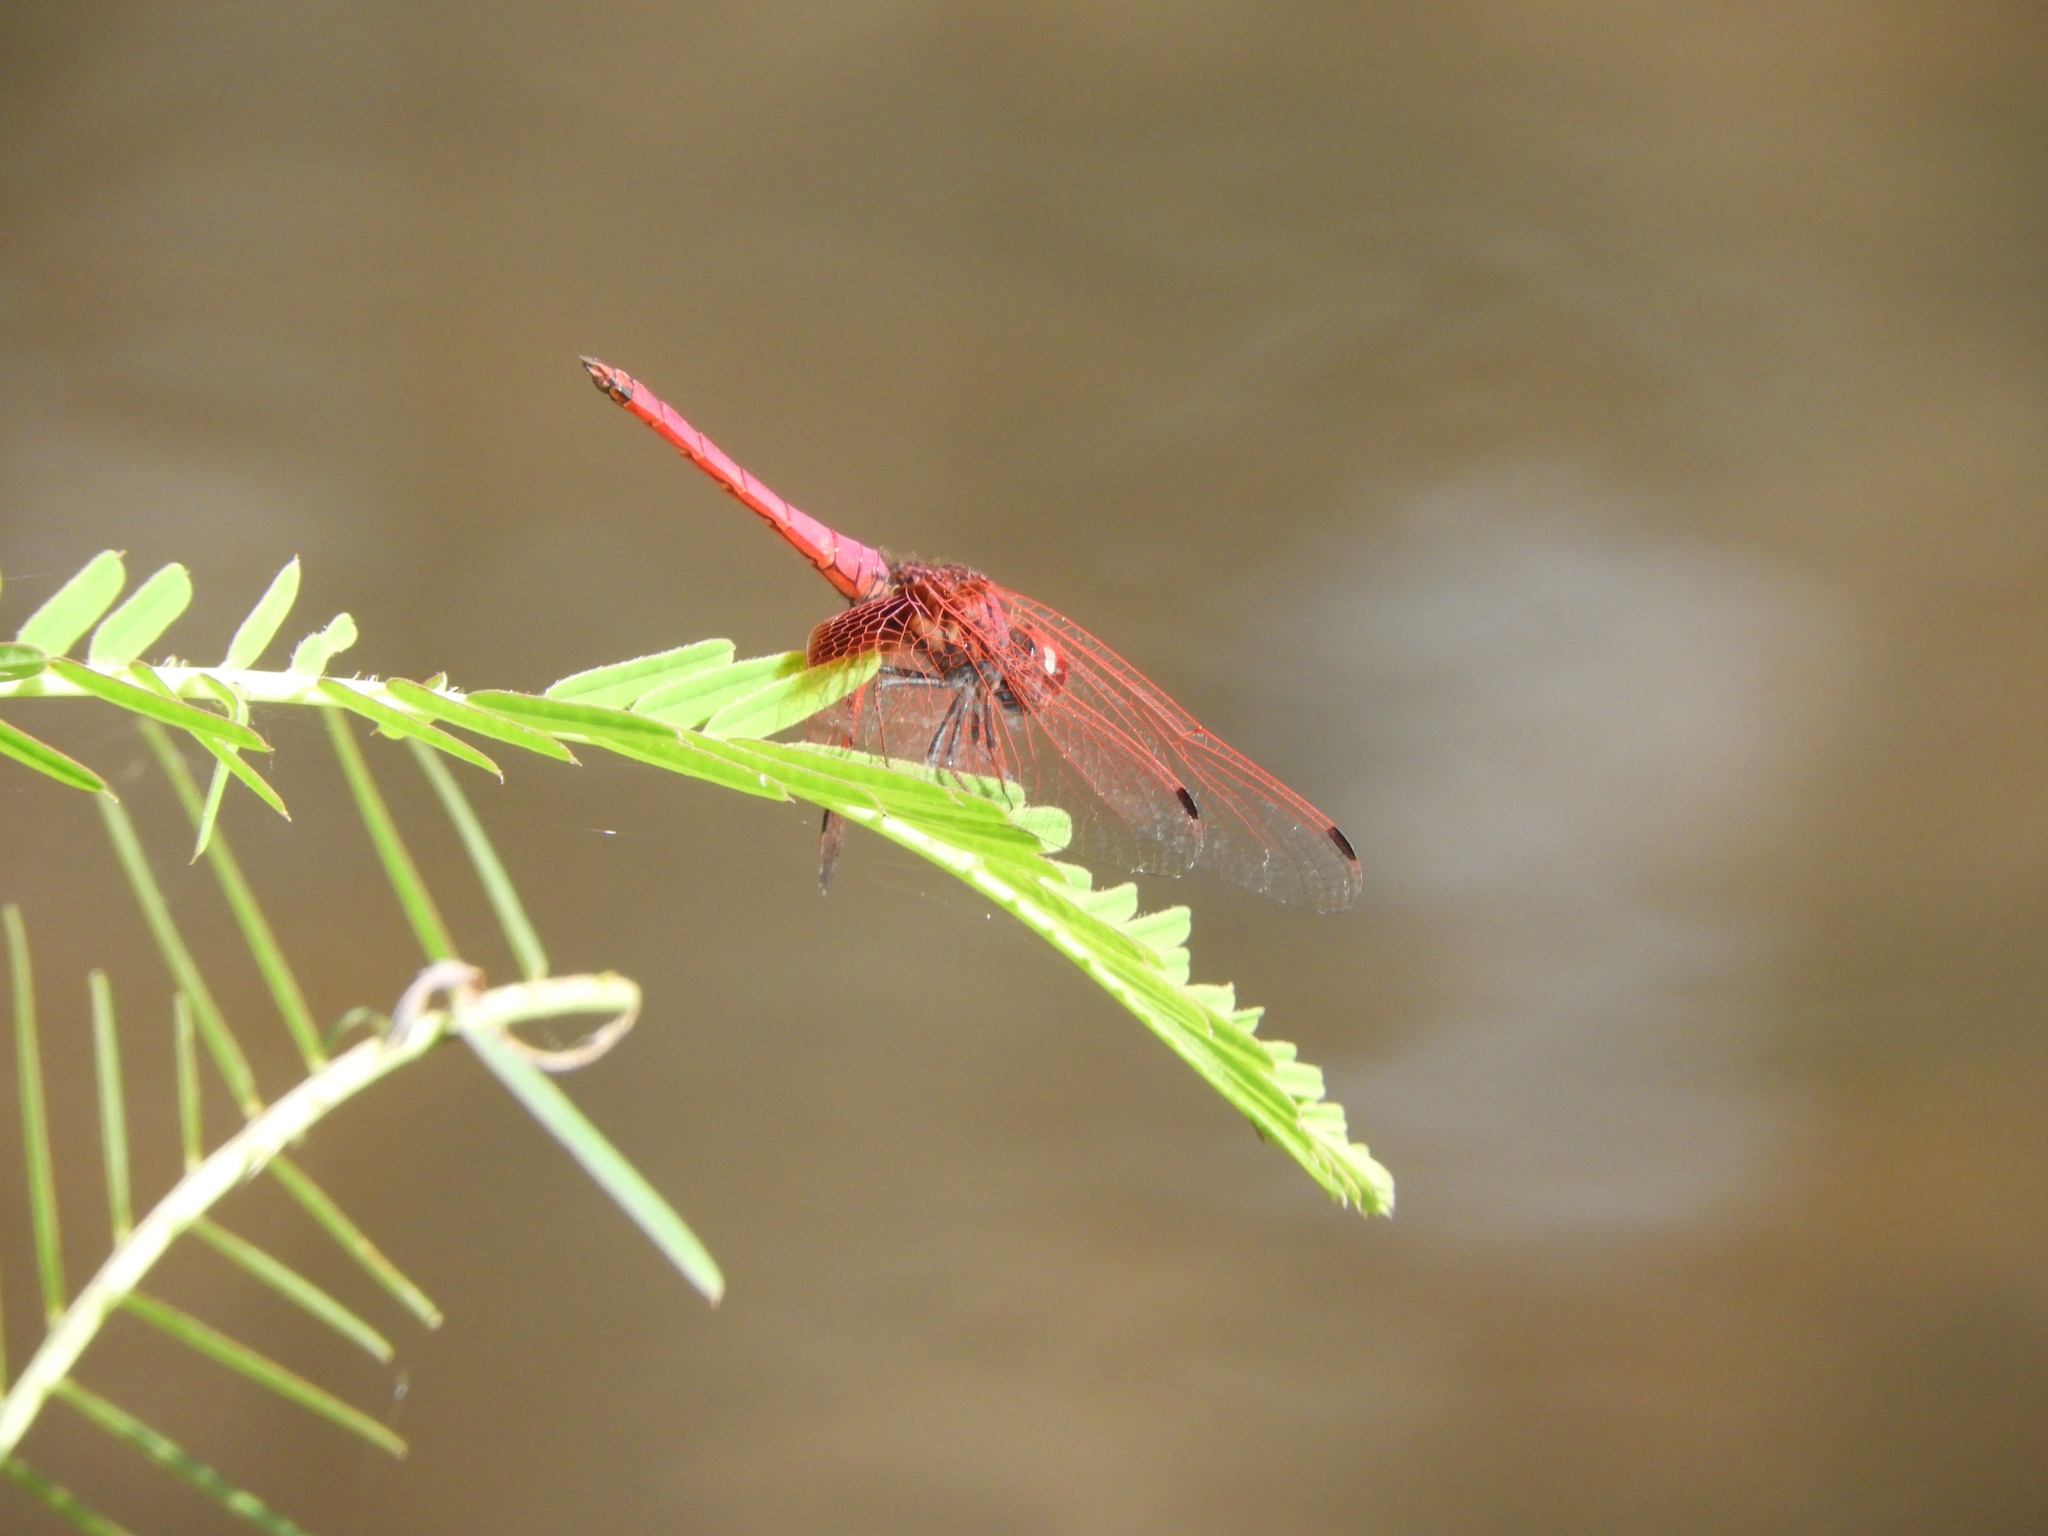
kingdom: Animalia
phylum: Arthropoda
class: Insecta
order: Odonata
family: Libellulidae
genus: Trithemis
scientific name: Trithemis aurora
